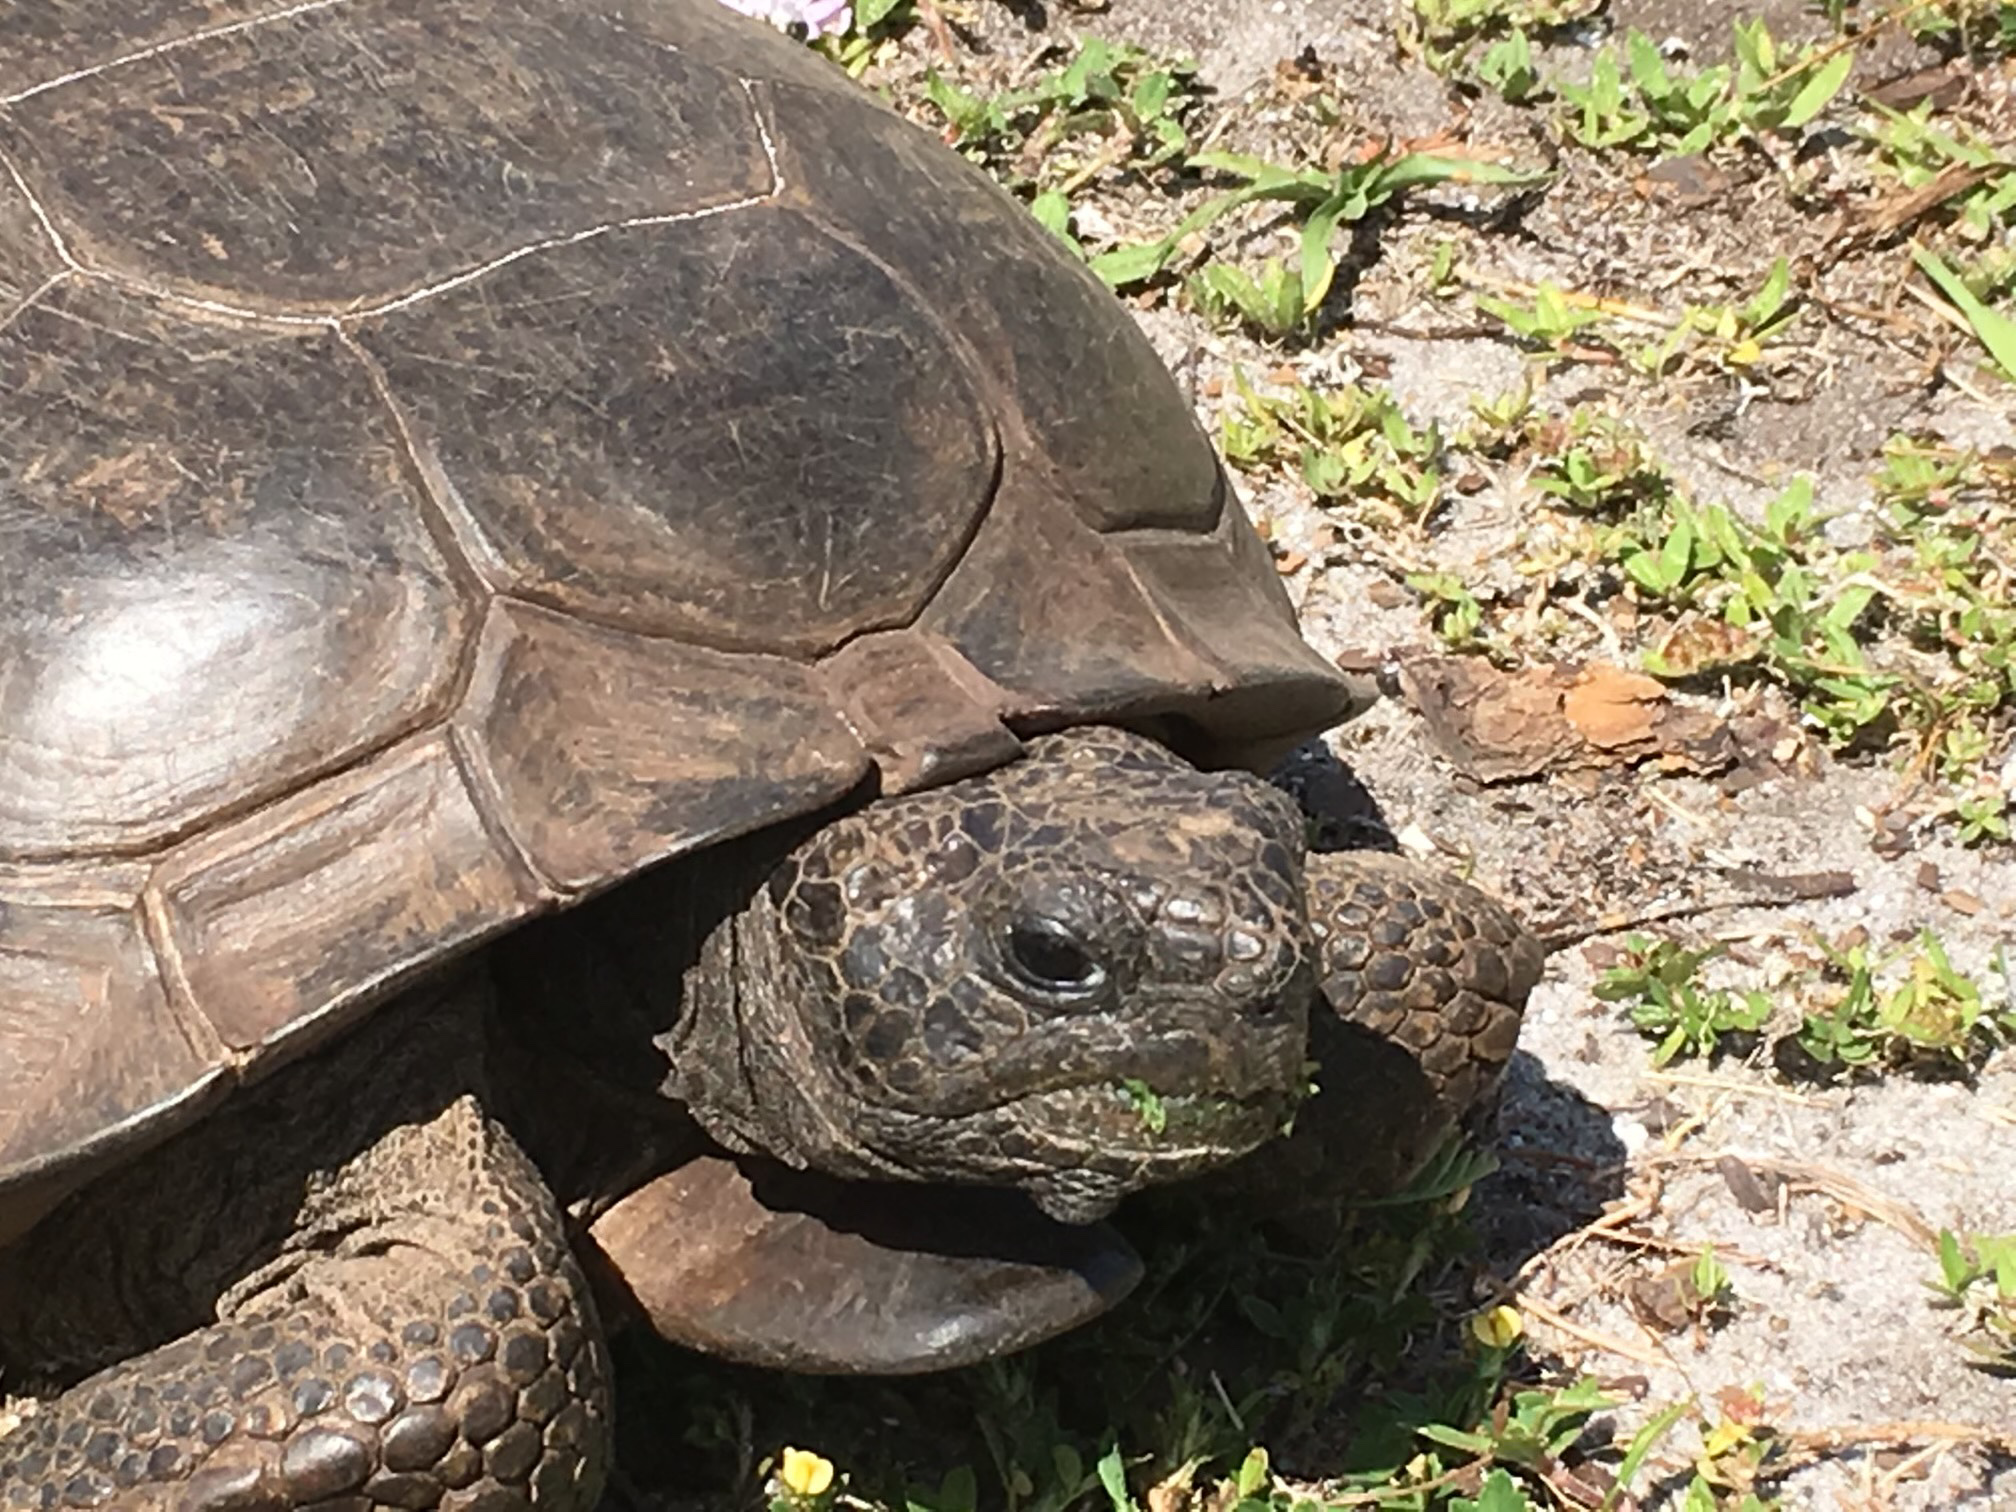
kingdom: Animalia
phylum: Chordata
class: Testudines
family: Testudinidae
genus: Gopherus
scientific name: Gopherus polyphemus
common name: Florida gopher tortoise
